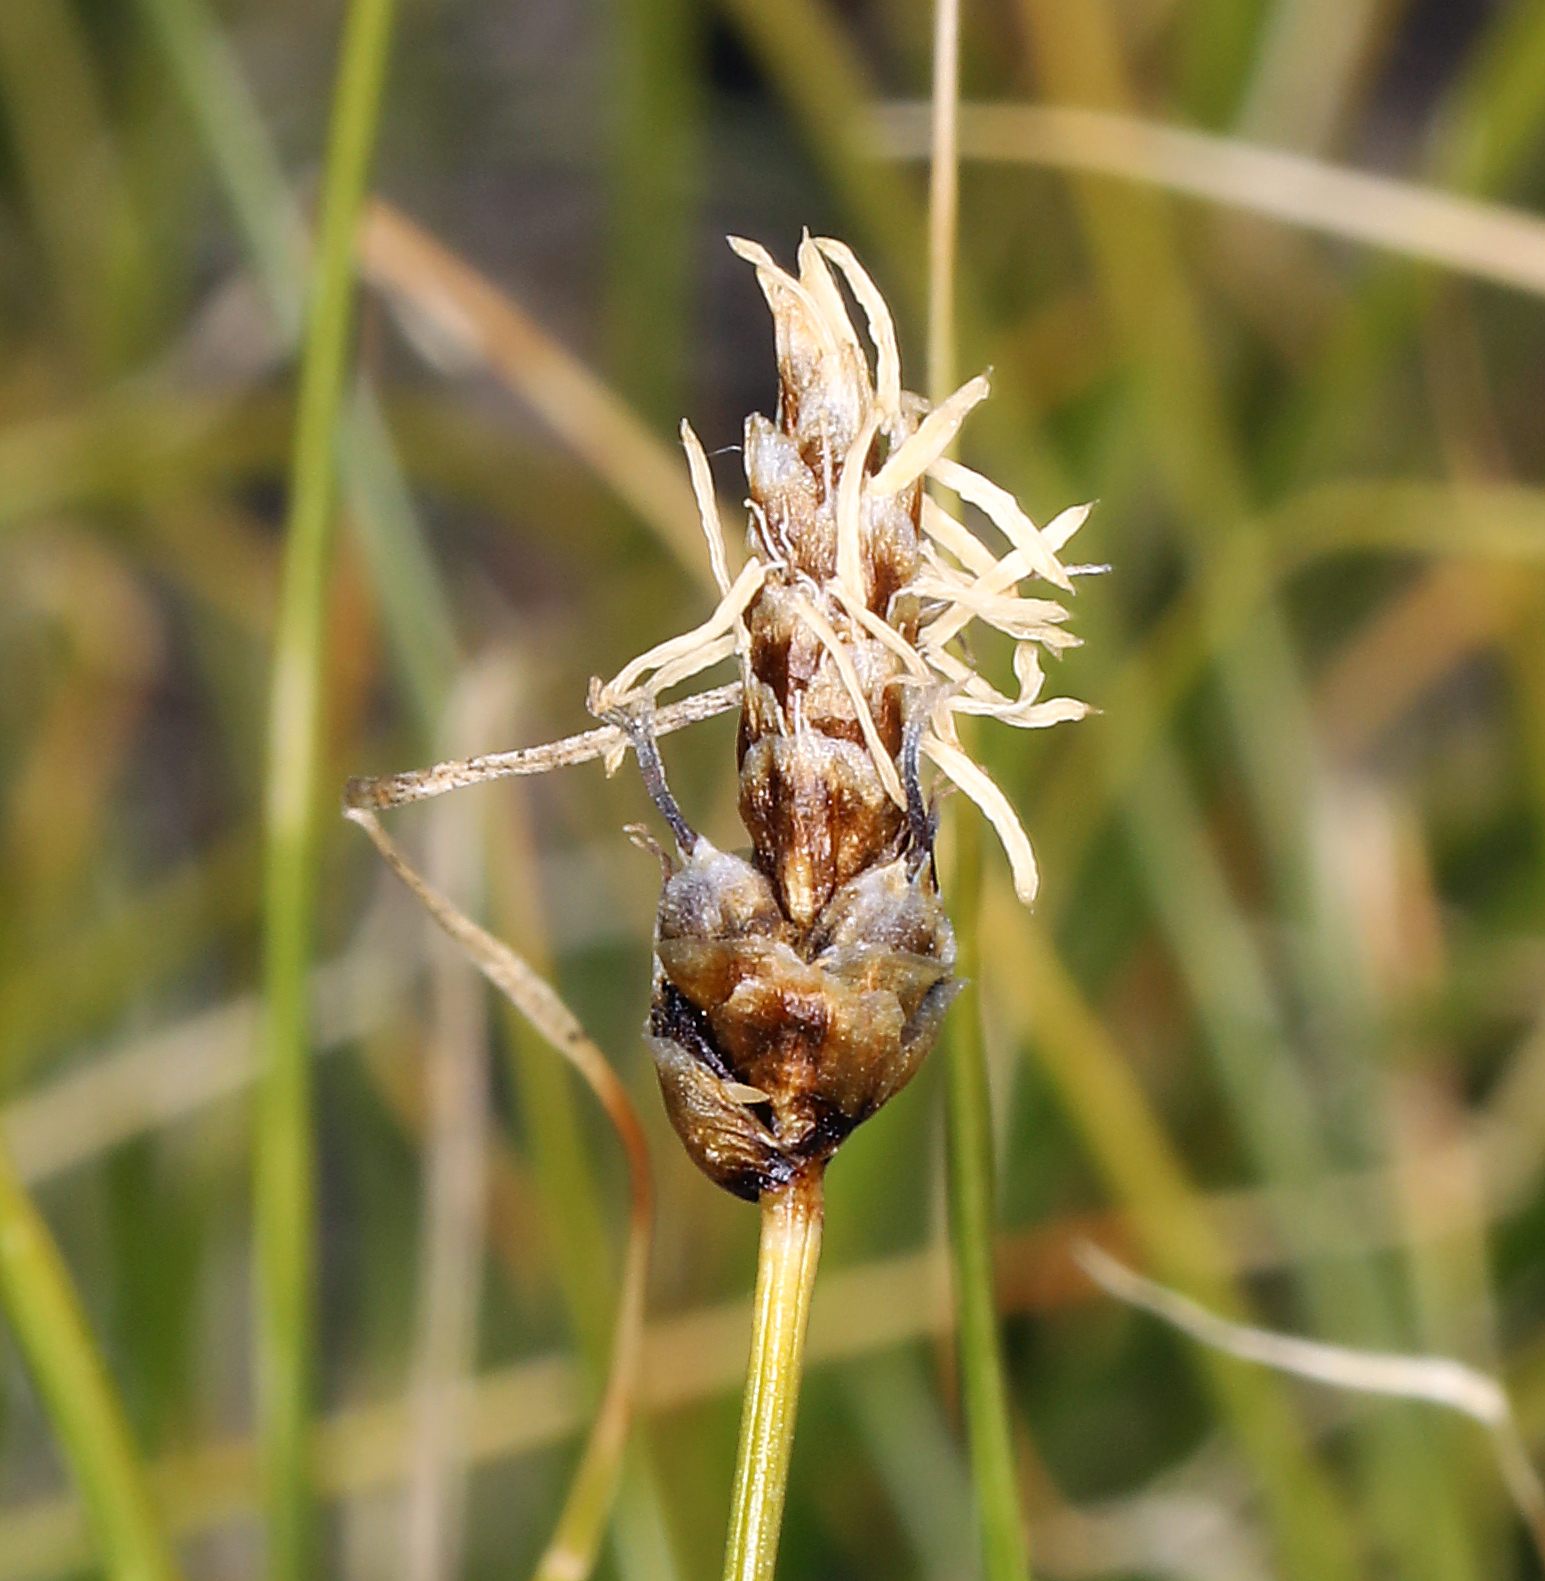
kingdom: Plantae
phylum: Tracheophyta
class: Liliopsida
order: Poales
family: Cyperaceae
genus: Carex
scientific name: Carex filifolia
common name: Threadleaf sedge
